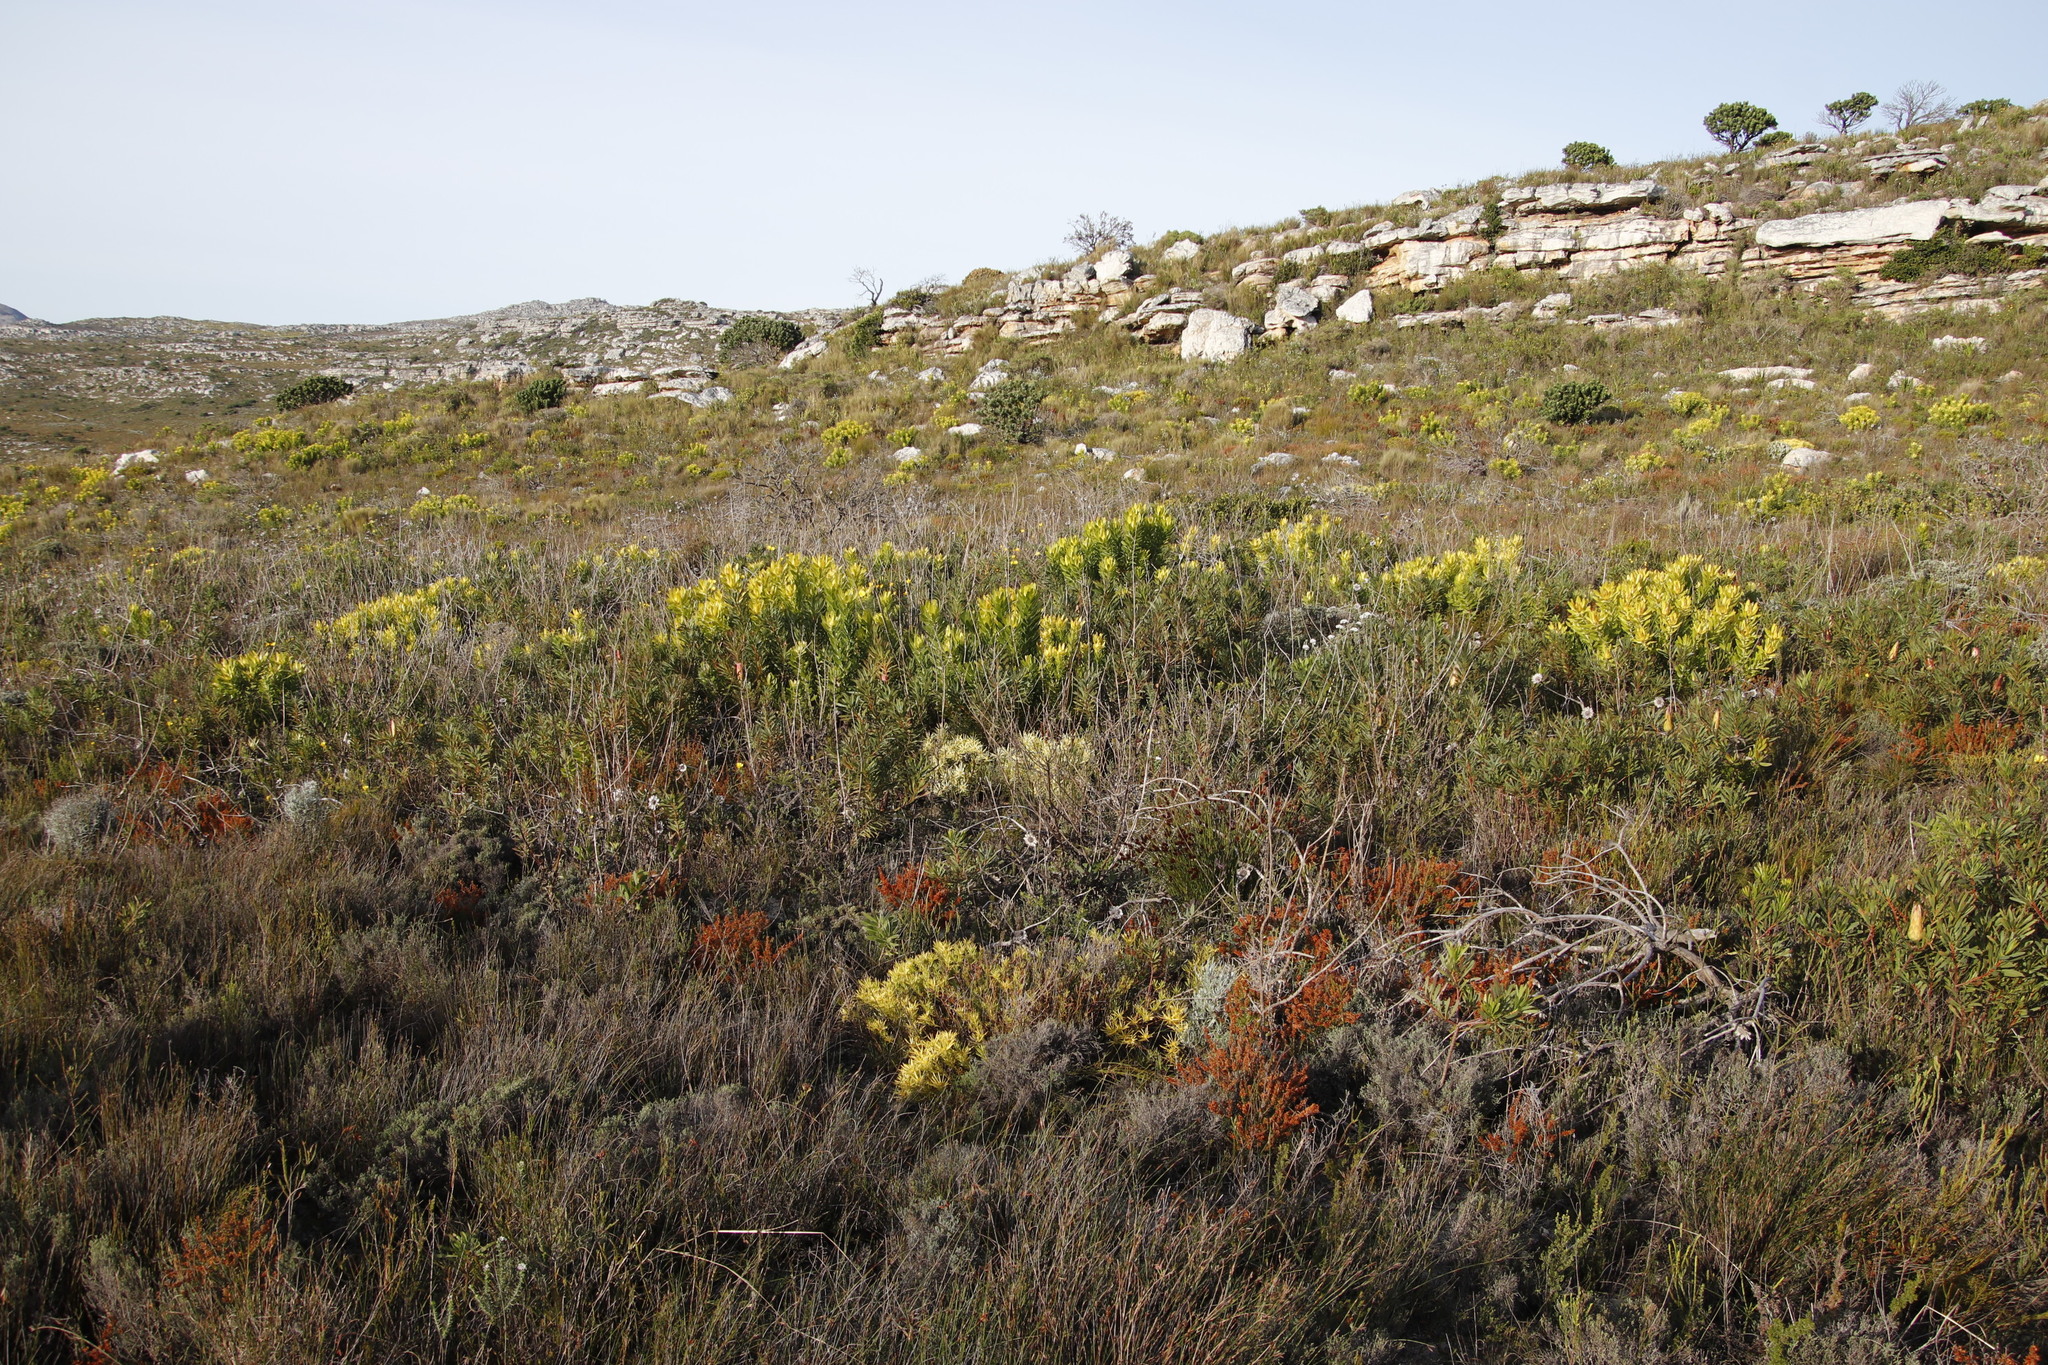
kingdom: Plantae
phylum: Tracheophyta
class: Magnoliopsida
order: Proteales
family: Proteaceae
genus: Leucadendron
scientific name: Leucadendron laureolum
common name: Golden sunshinebush
